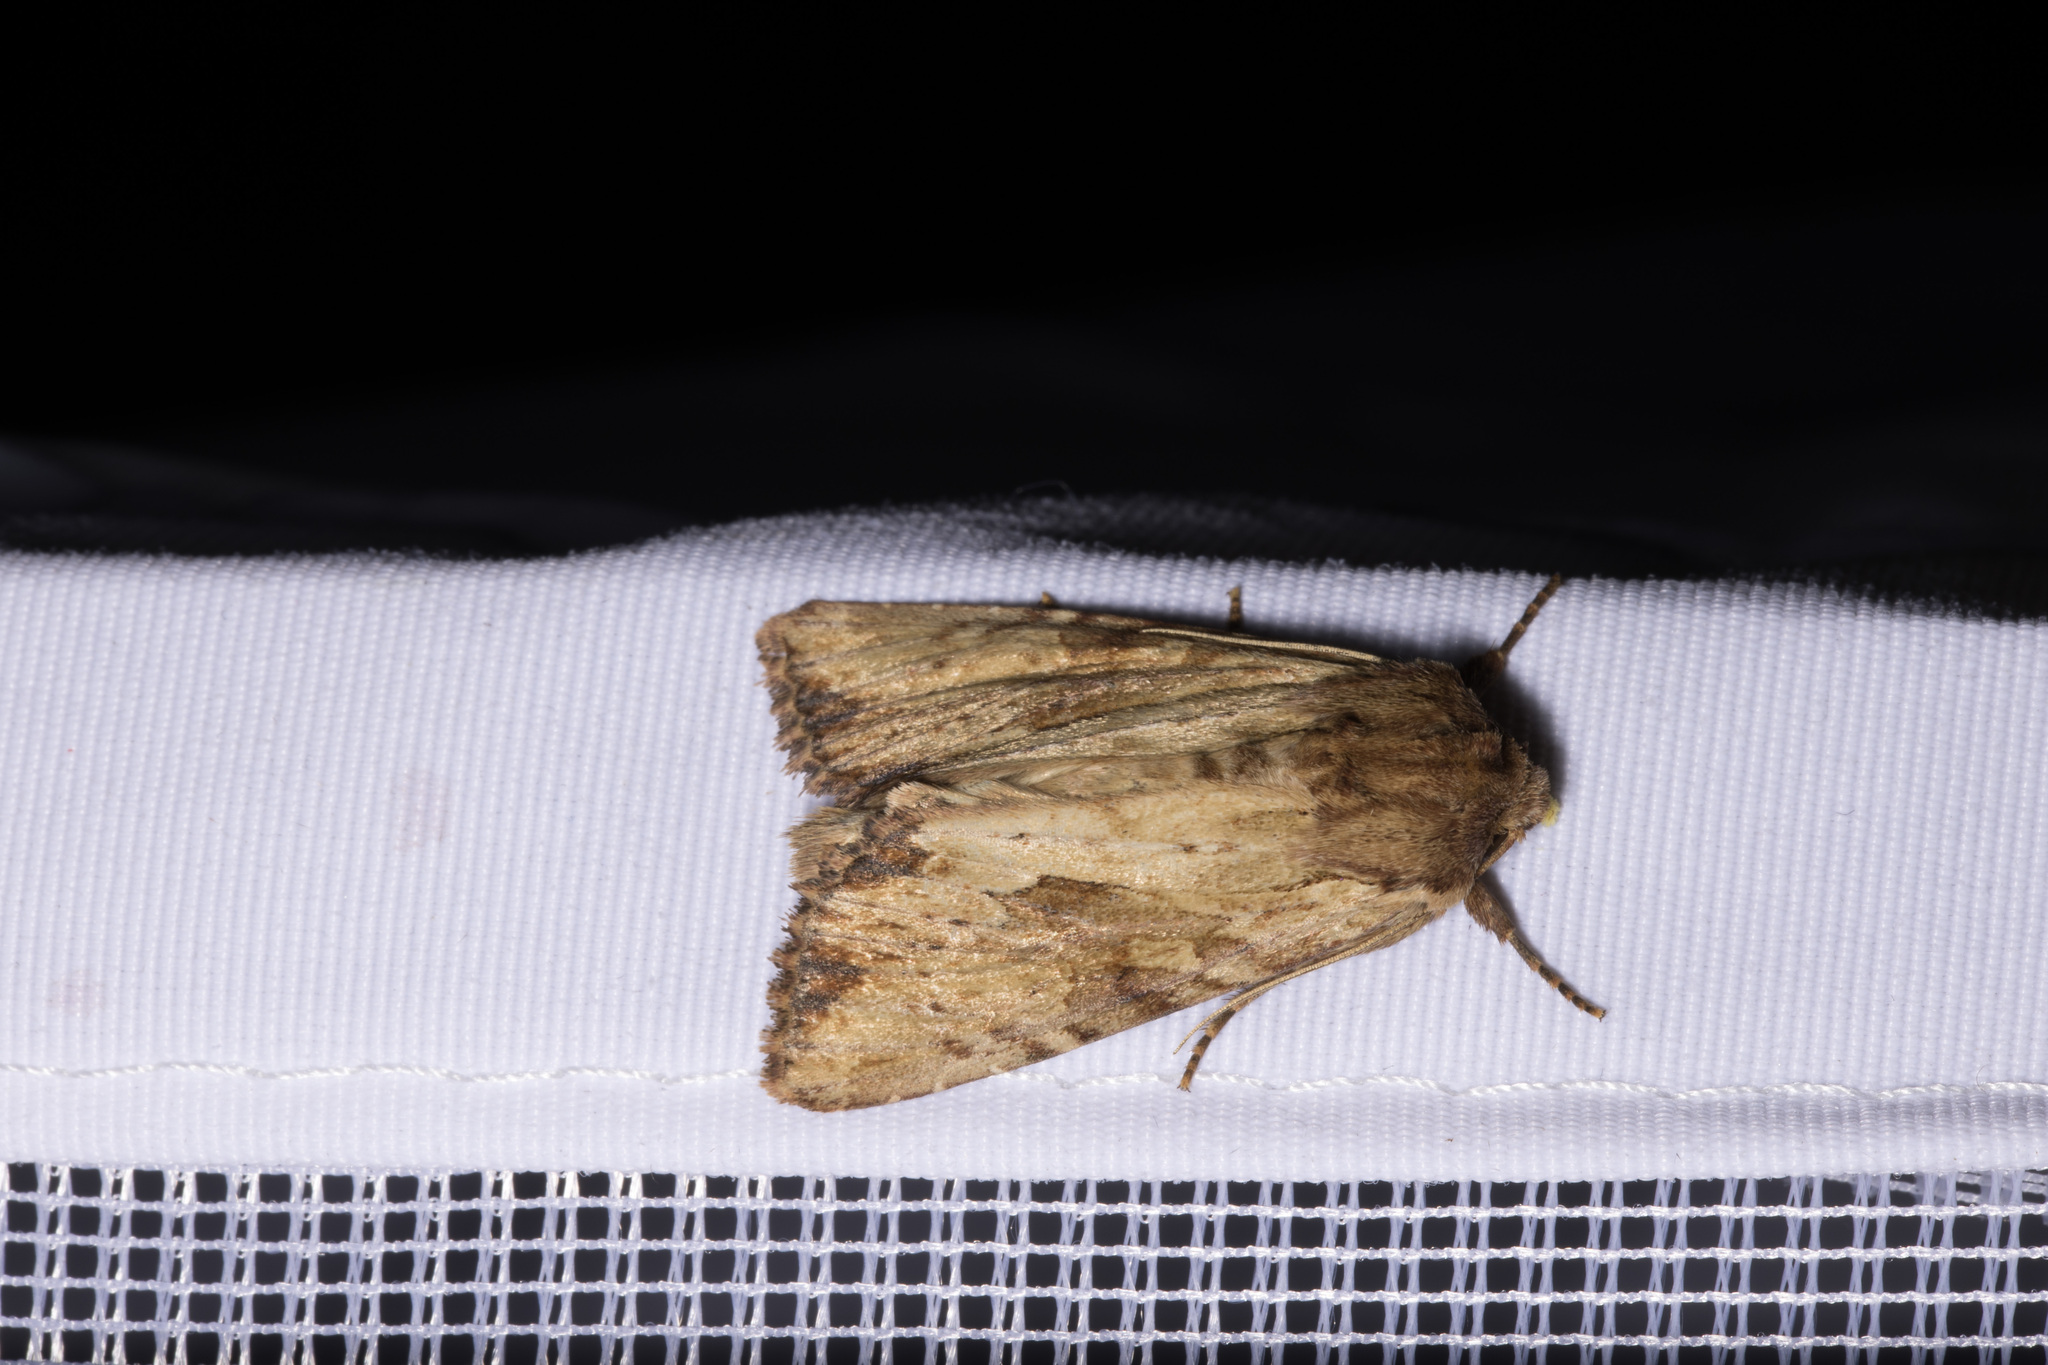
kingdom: Animalia
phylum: Arthropoda
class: Insecta
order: Lepidoptera
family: Noctuidae
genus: Apamea
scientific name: Apamea sublustris
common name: Reddish light arches
